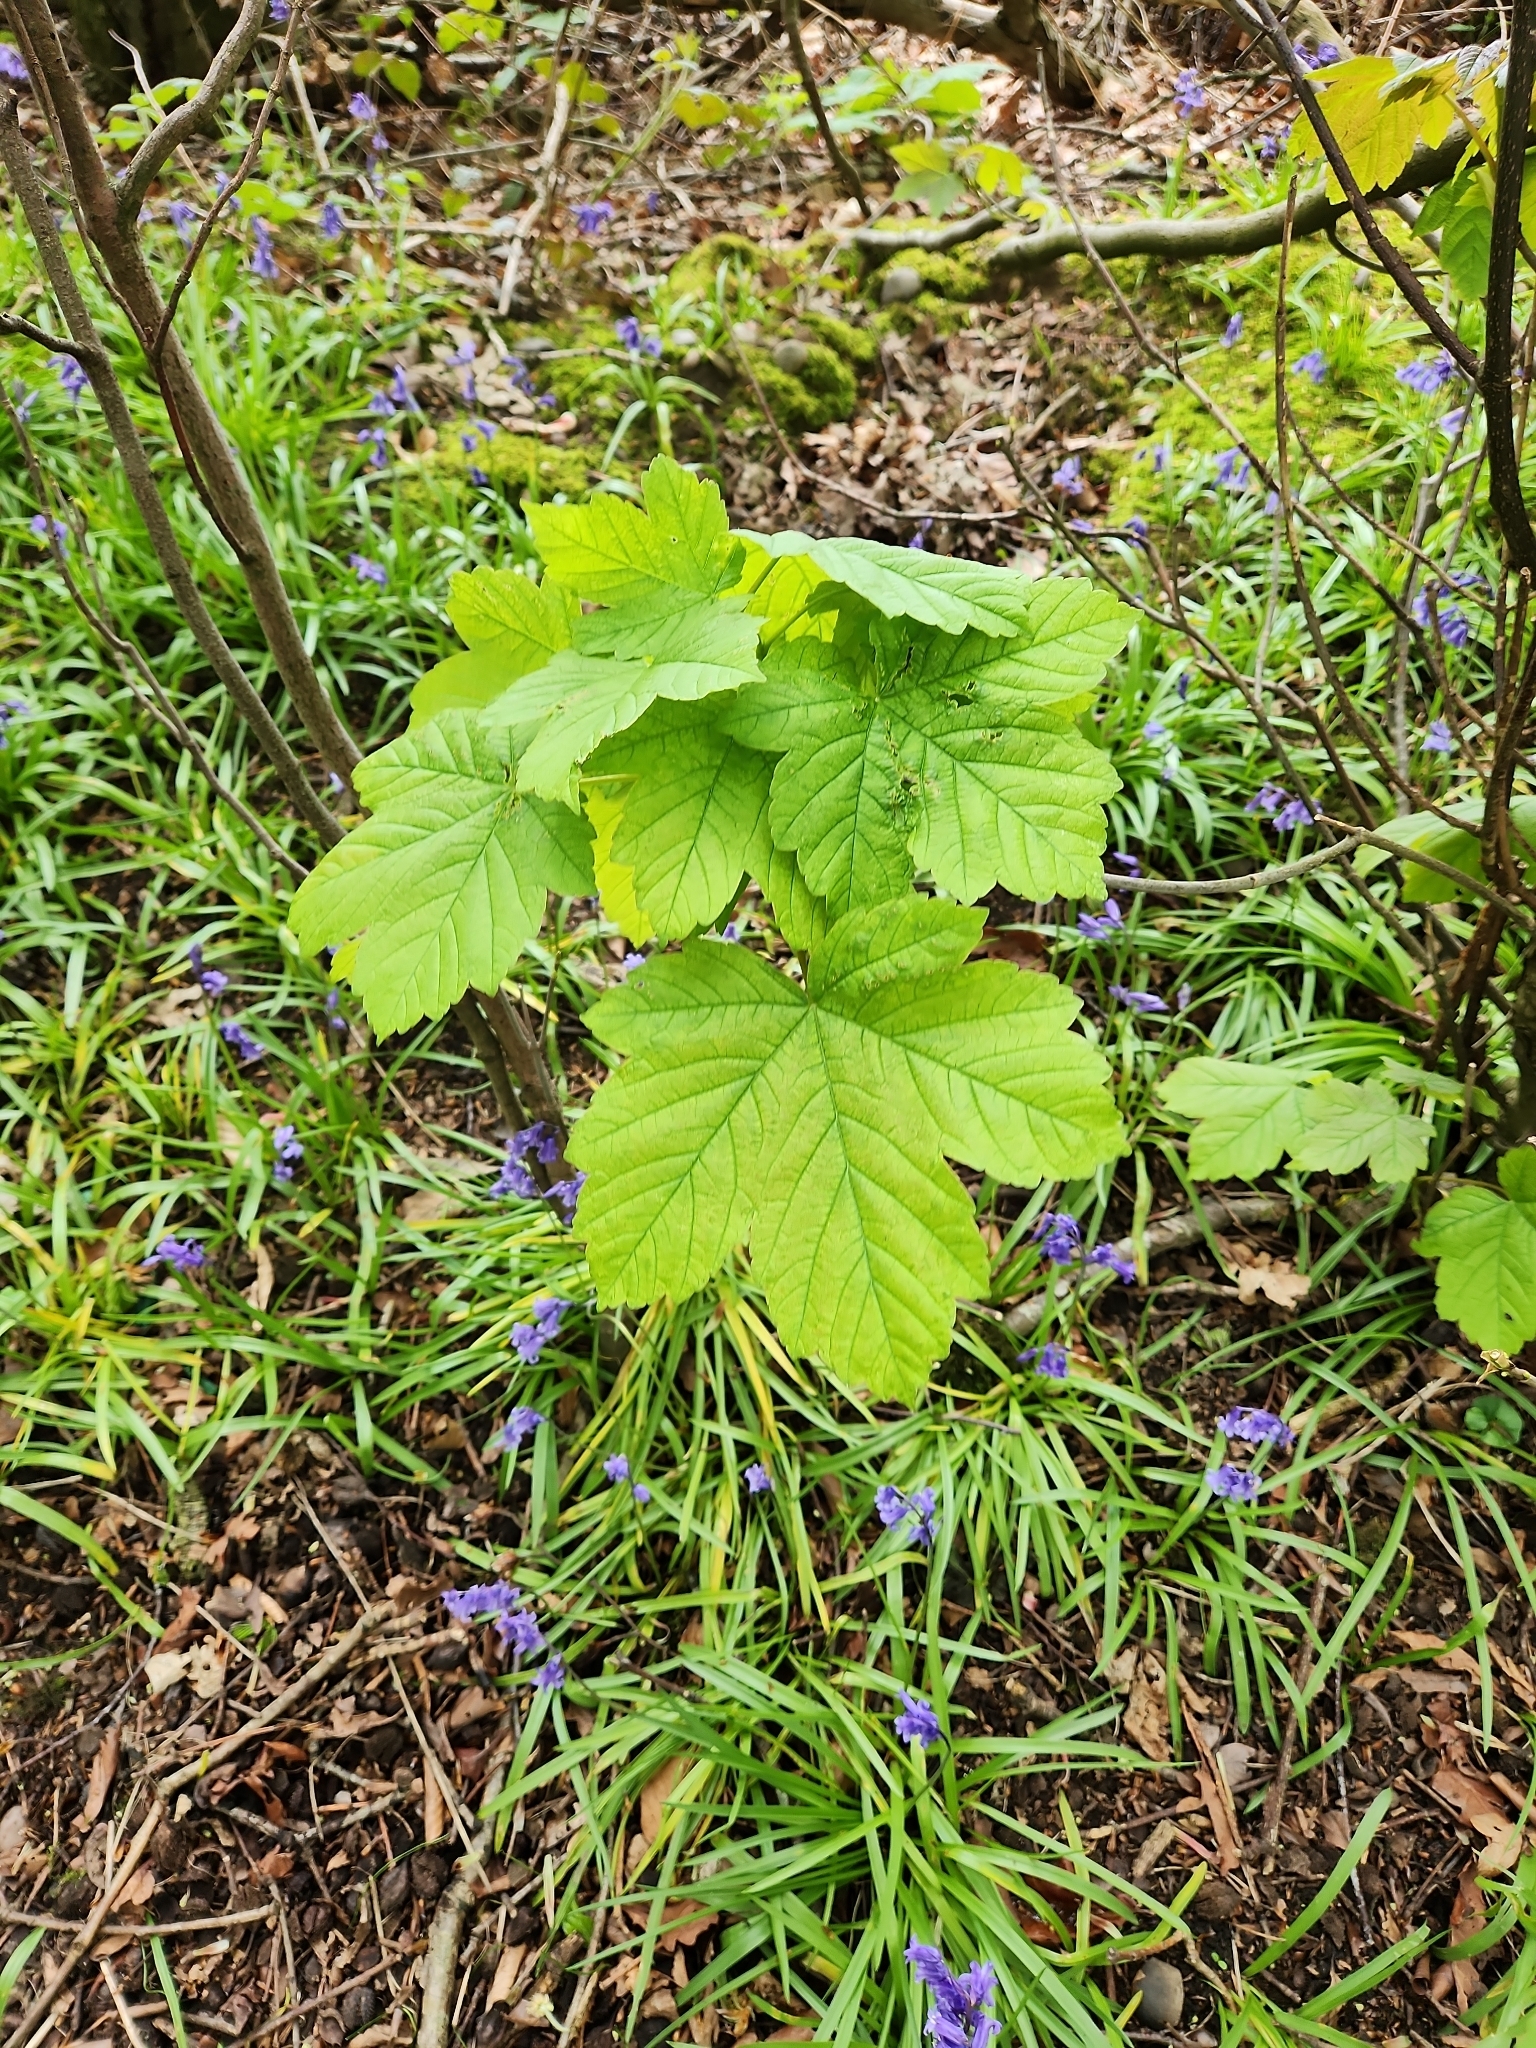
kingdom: Plantae
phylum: Tracheophyta
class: Magnoliopsida
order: Sapindales
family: Sapindaceae
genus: Acer
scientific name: Acer pseudoplatanus
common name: Sycamore
